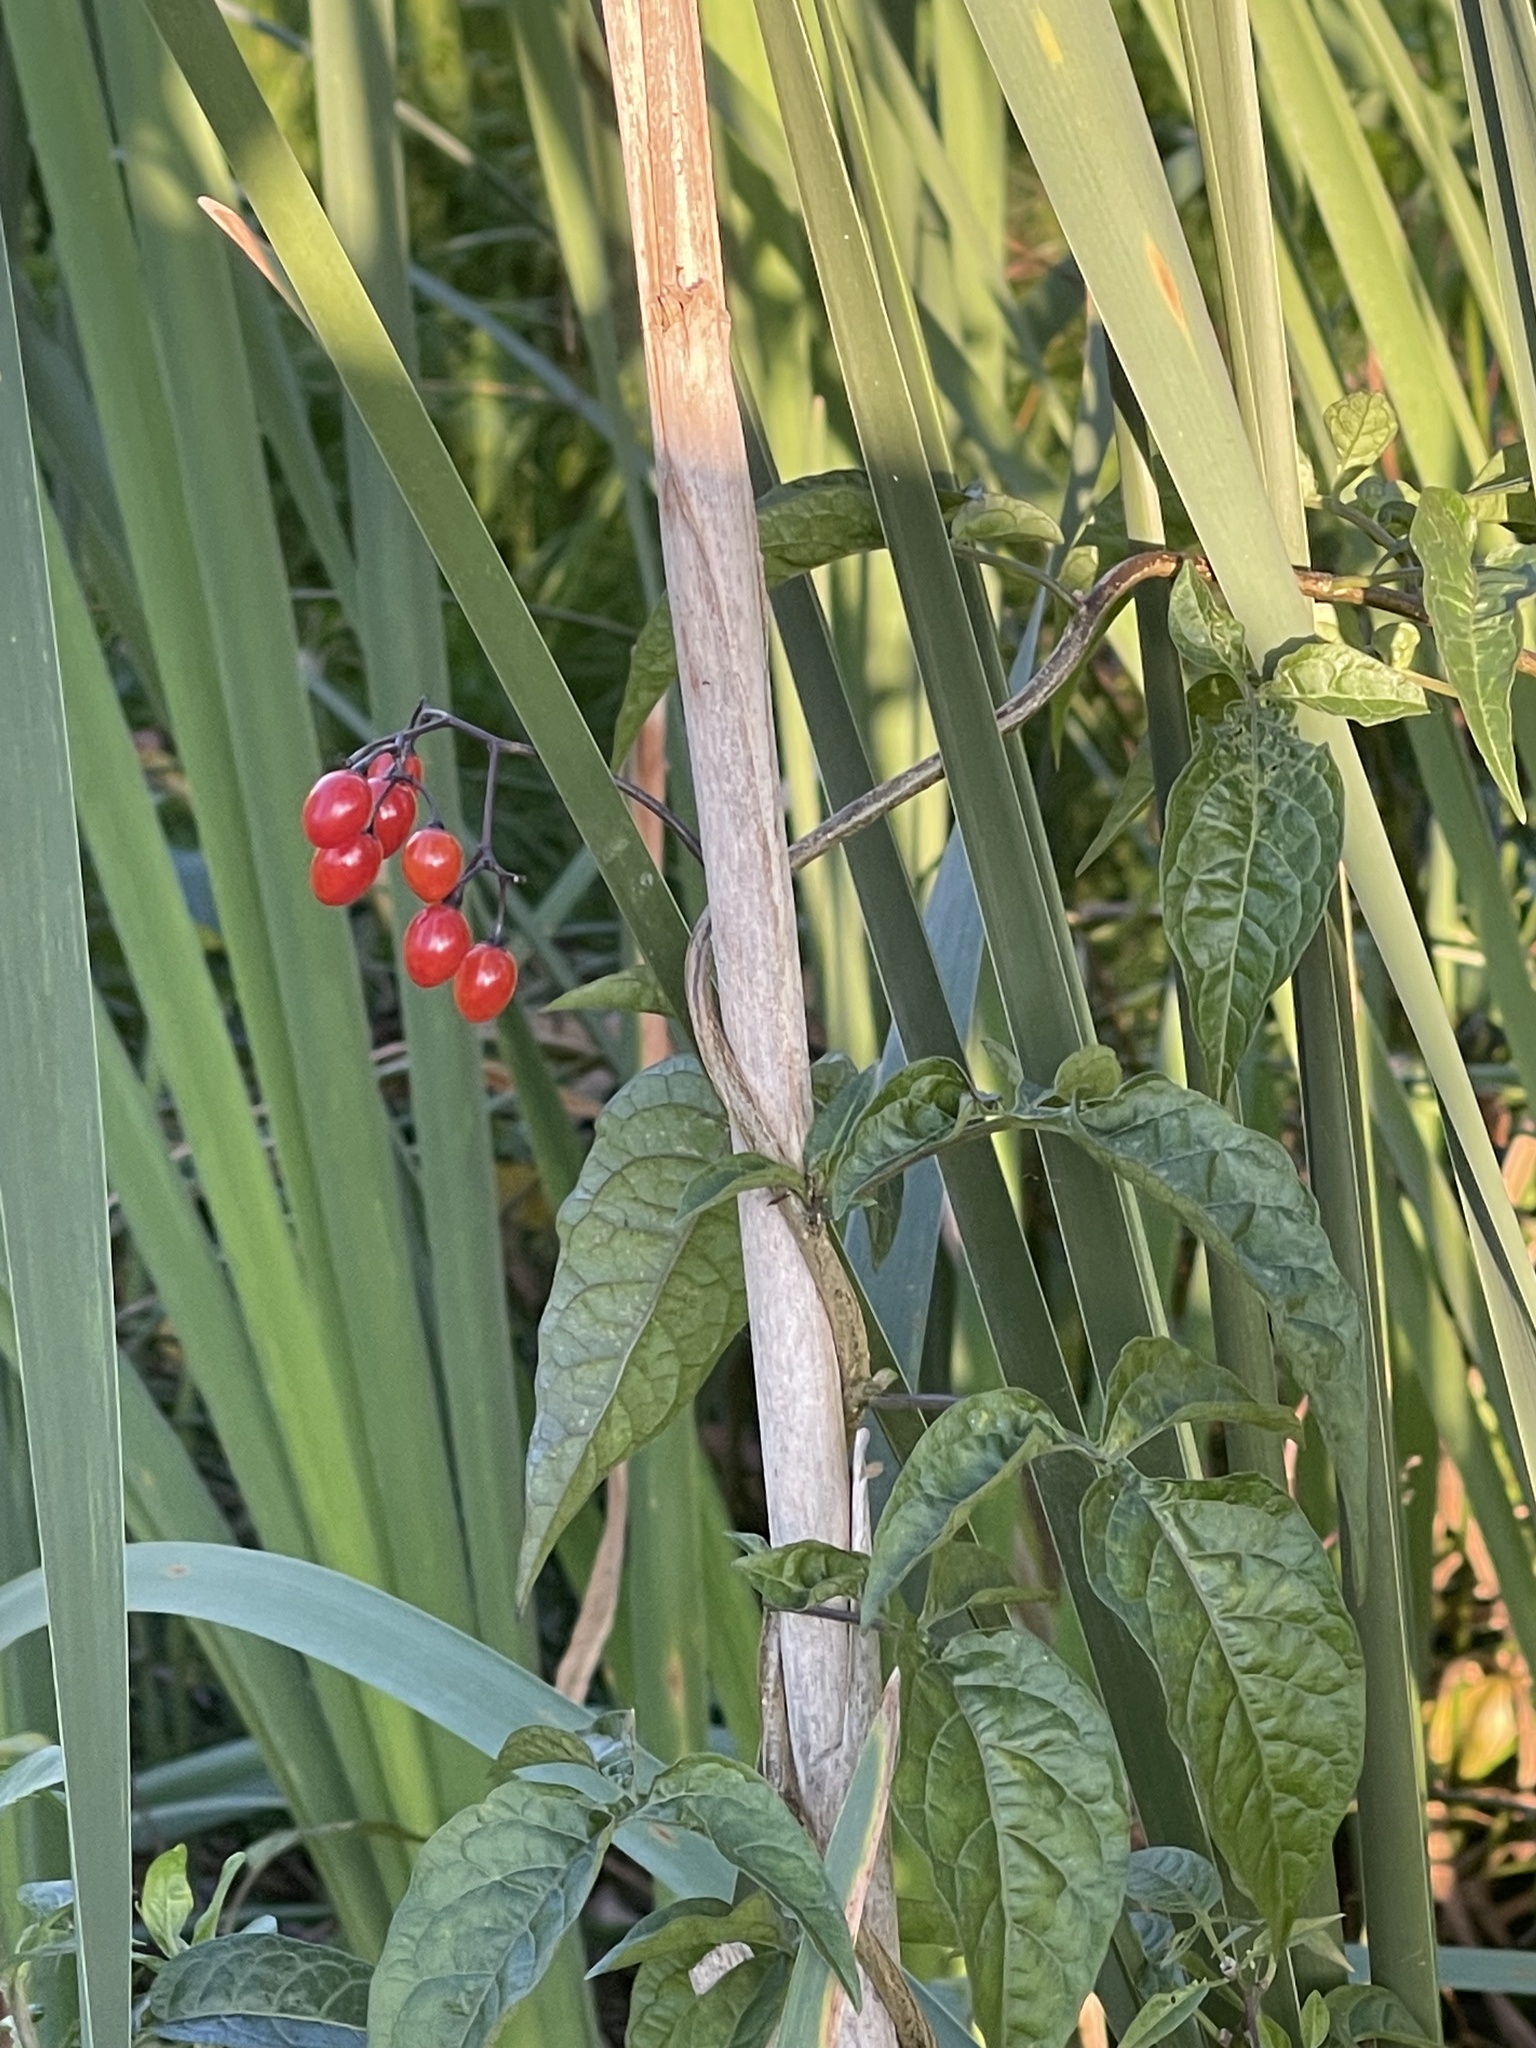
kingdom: Plantae
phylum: Tracheophyta
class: Magnoliopsida
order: Solanales
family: Solanaceae
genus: Solanum
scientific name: Solanum dulcamara
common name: Climbing nightshade
